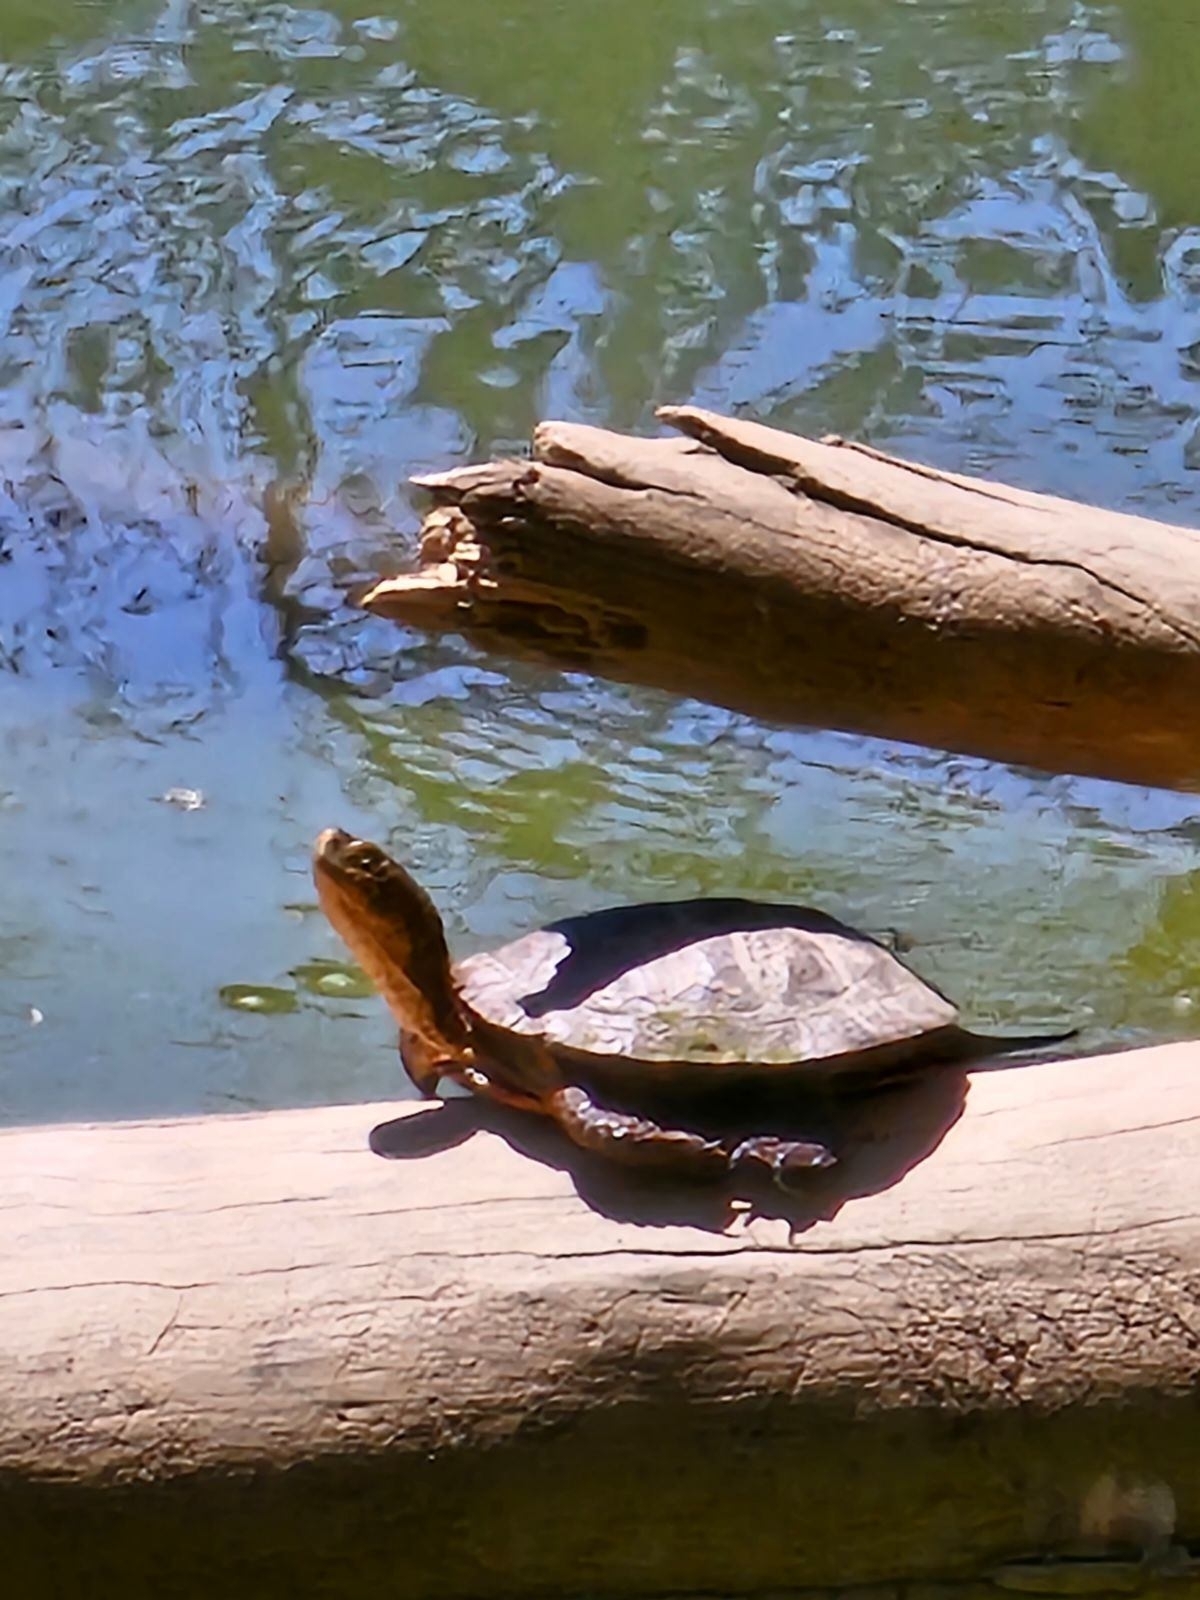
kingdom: Animalia
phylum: Chordata
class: Testudines
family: Emydidae
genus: Actinemys
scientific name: Actinemys marmorata
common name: Western pond turtle
